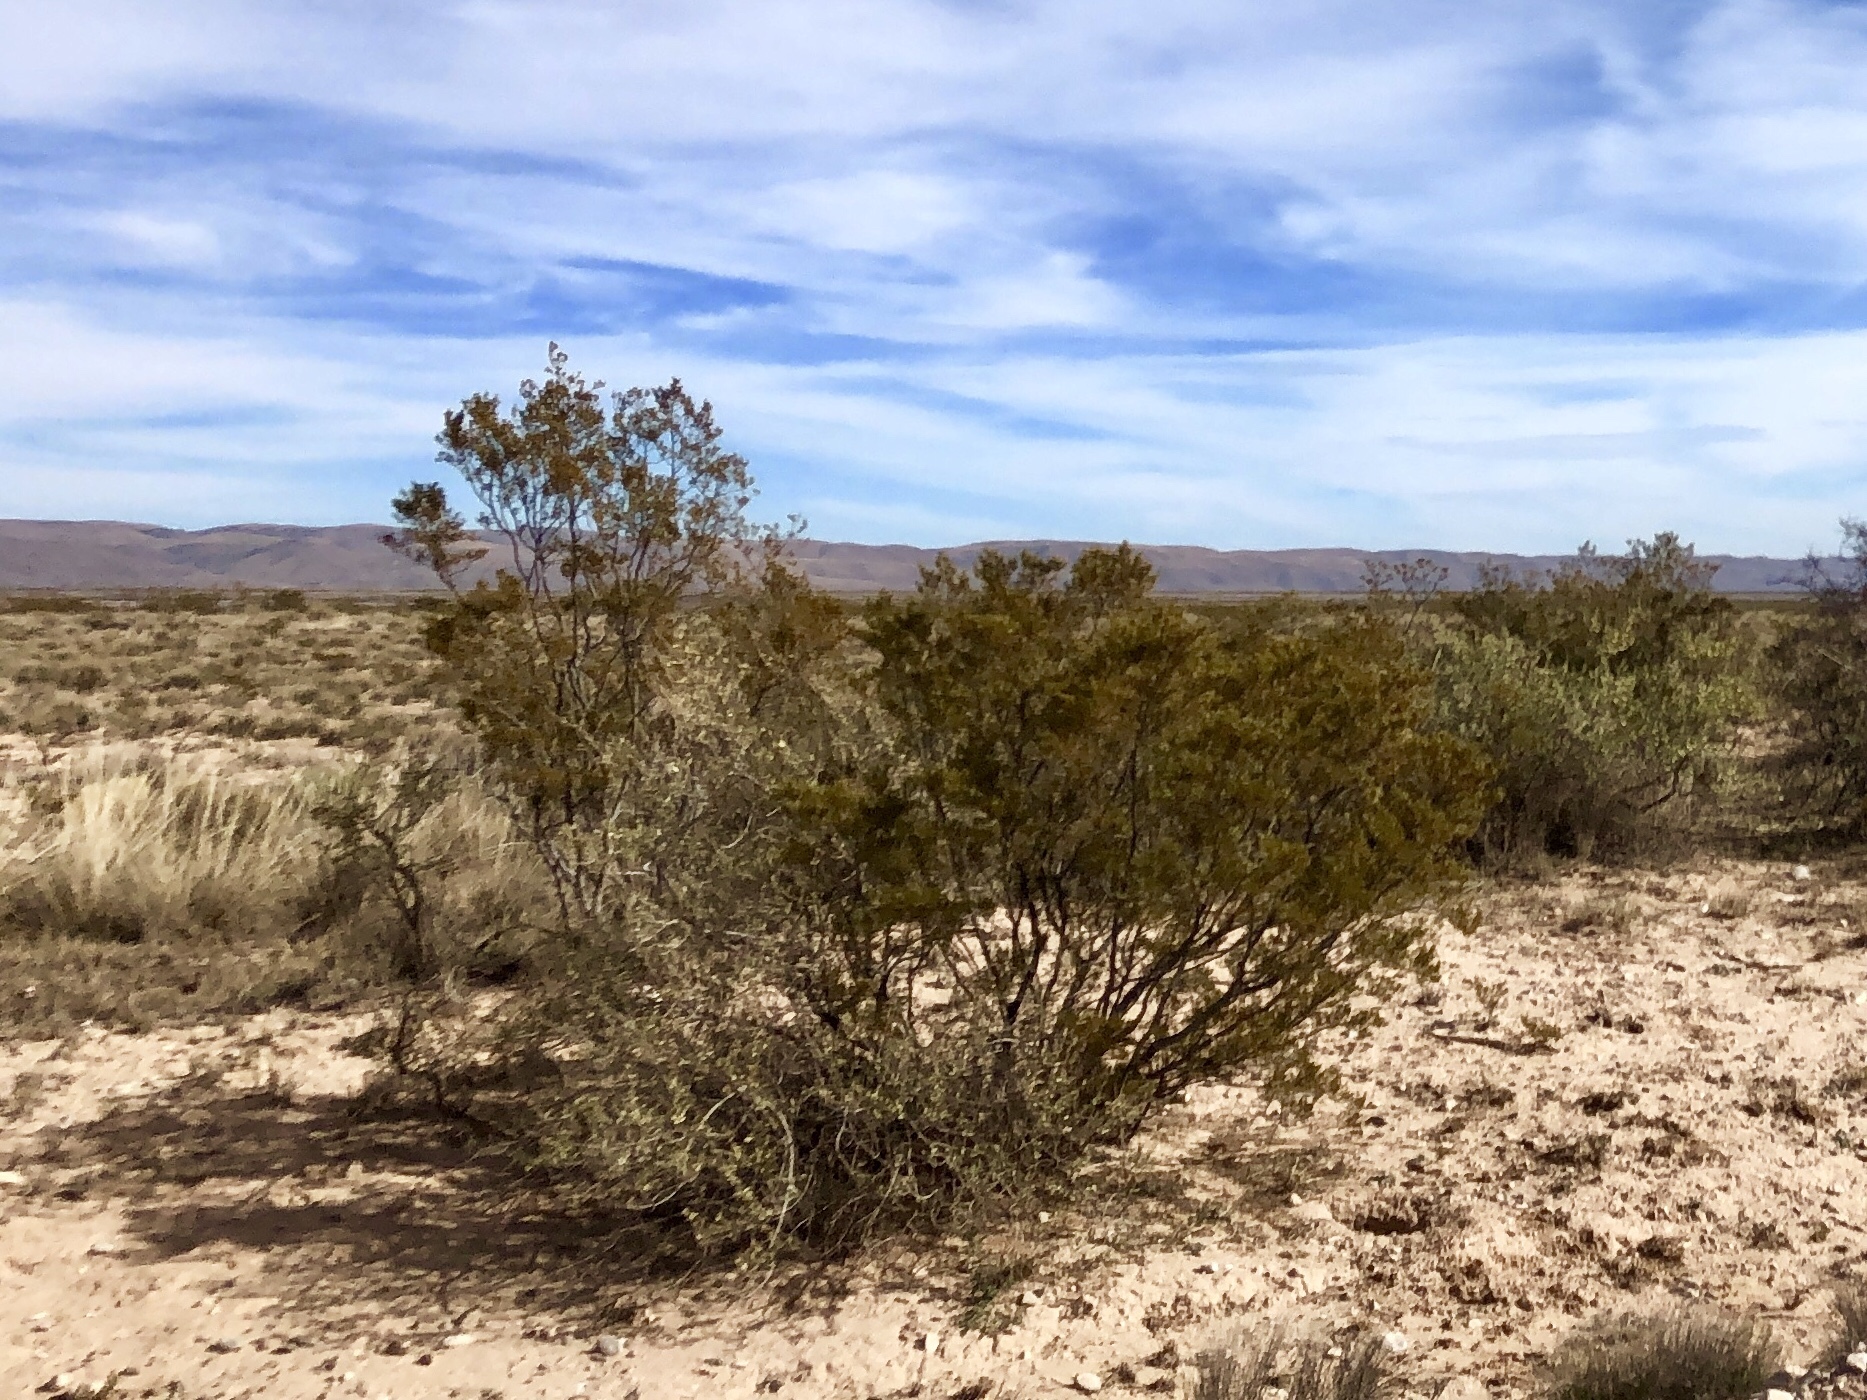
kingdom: Plantae
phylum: Tracheophyta
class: Magnoliopsida
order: Zygophyllales
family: Zygophyllaceae
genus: Larrea
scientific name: Larrea tridentata
